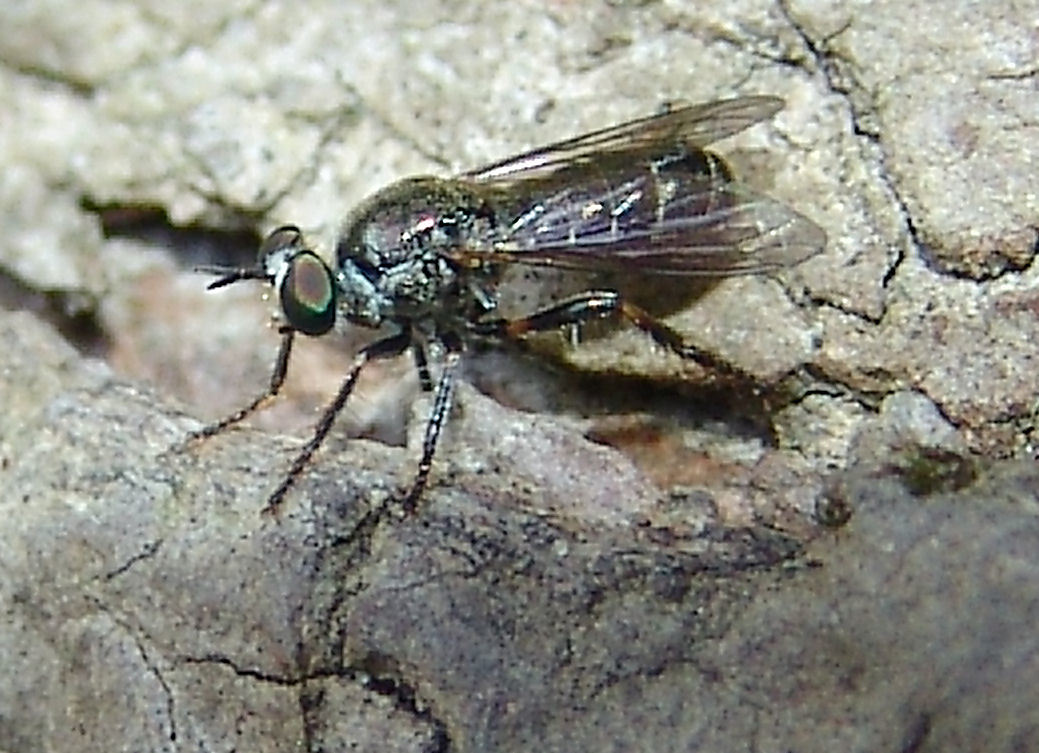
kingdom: Animalia
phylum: Arthropoda
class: Insecta
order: Diptera
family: Asilidae
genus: Atomosia
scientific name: Atomosia puella
